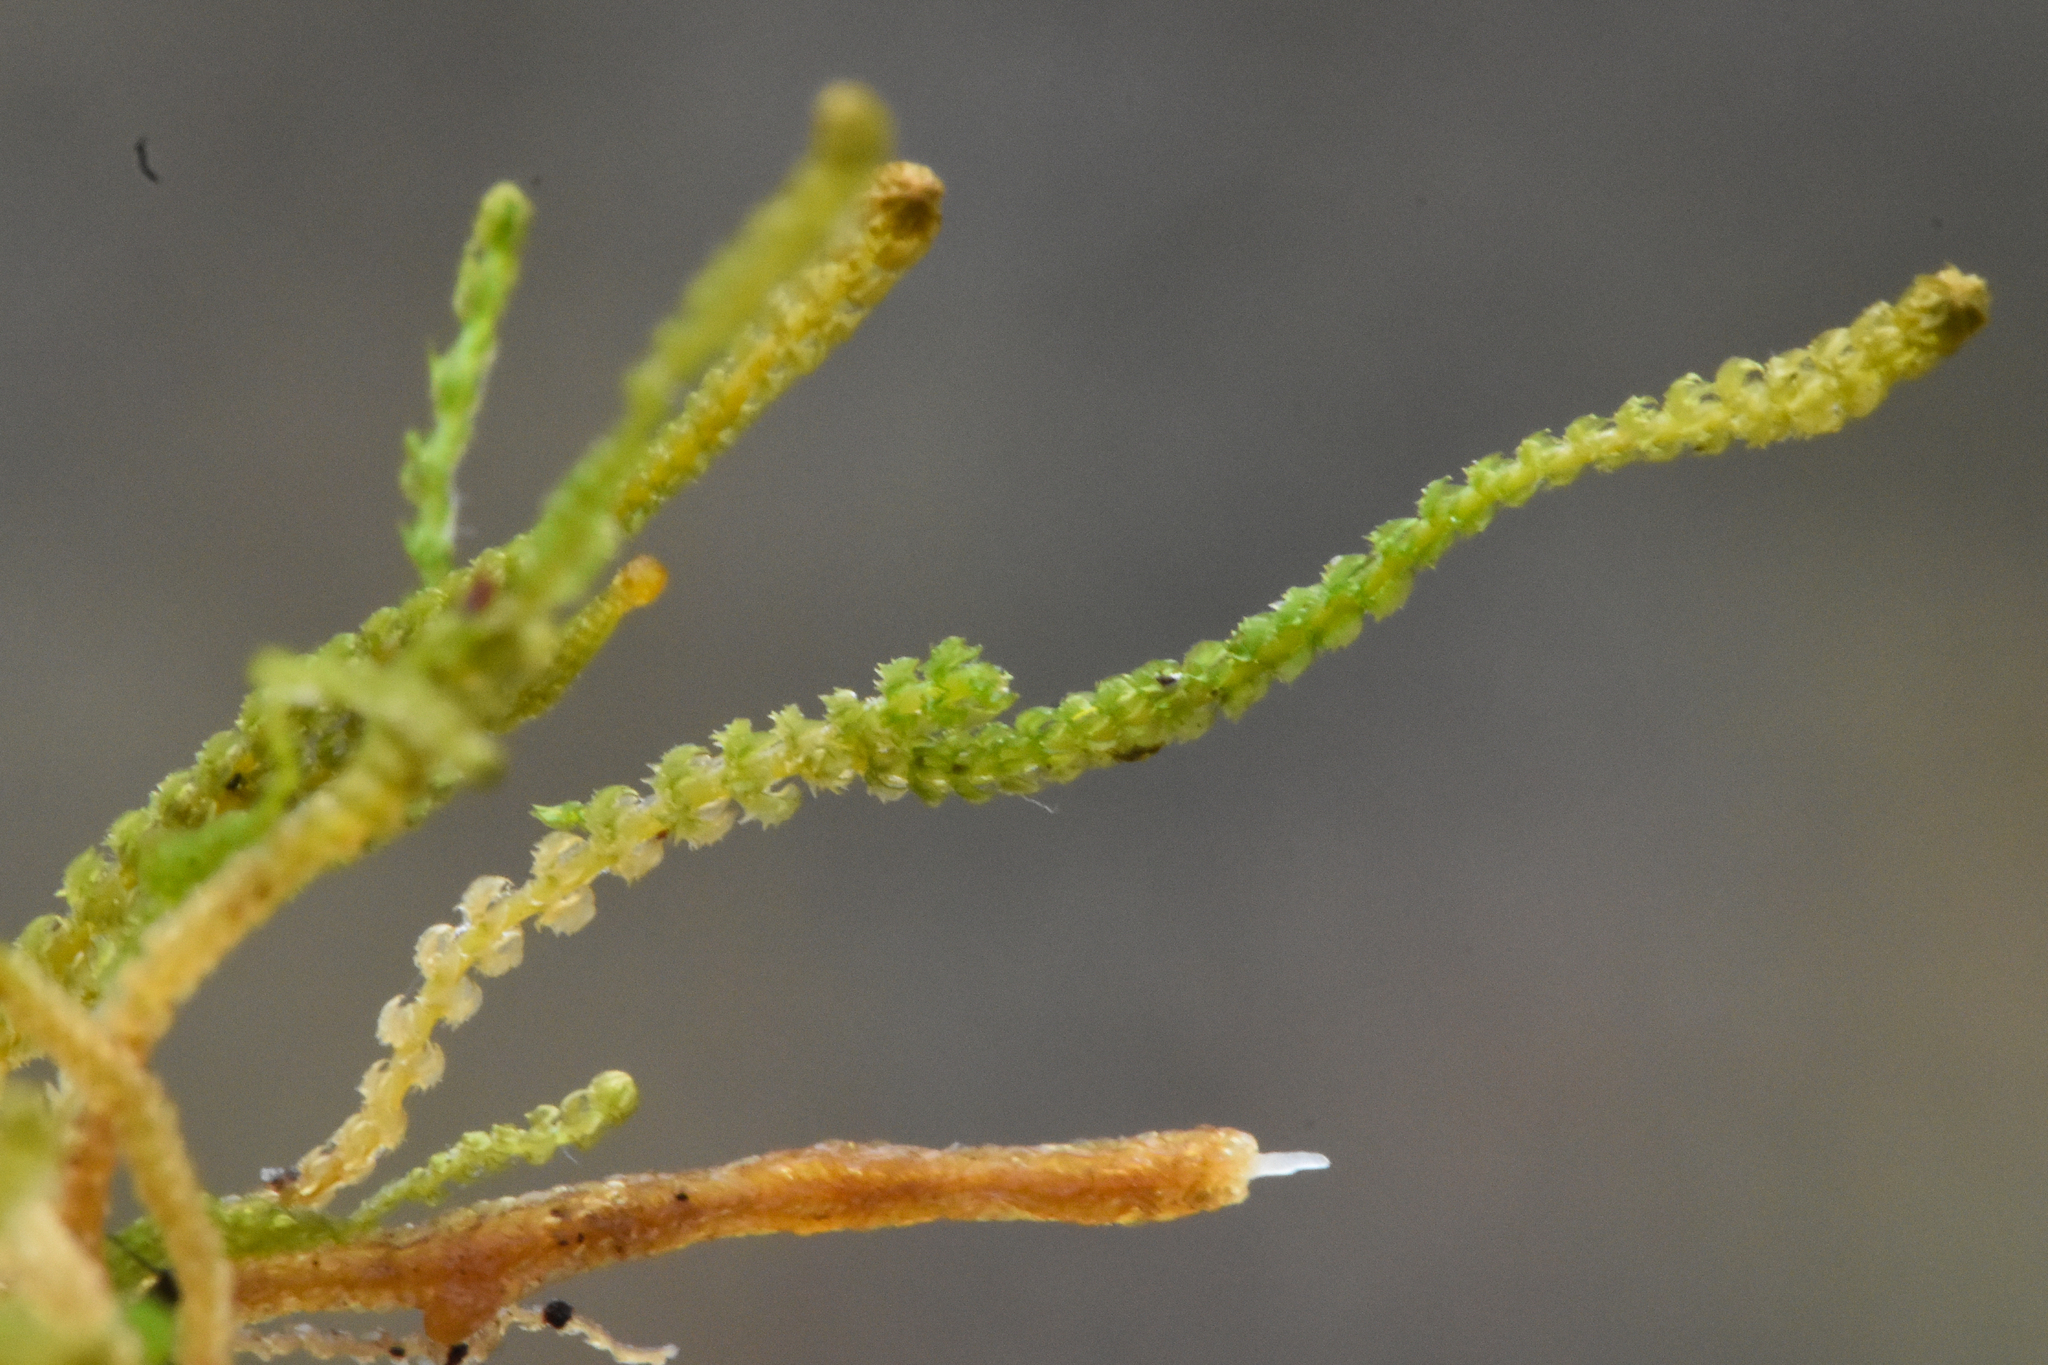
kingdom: Plantae
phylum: Marchantiophyta
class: Jungermanniopsida
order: Jungermanniales
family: Anastrophyllaceae
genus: Tetralophozia
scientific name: Tetralophozia setiformis
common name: Monster pawwort
